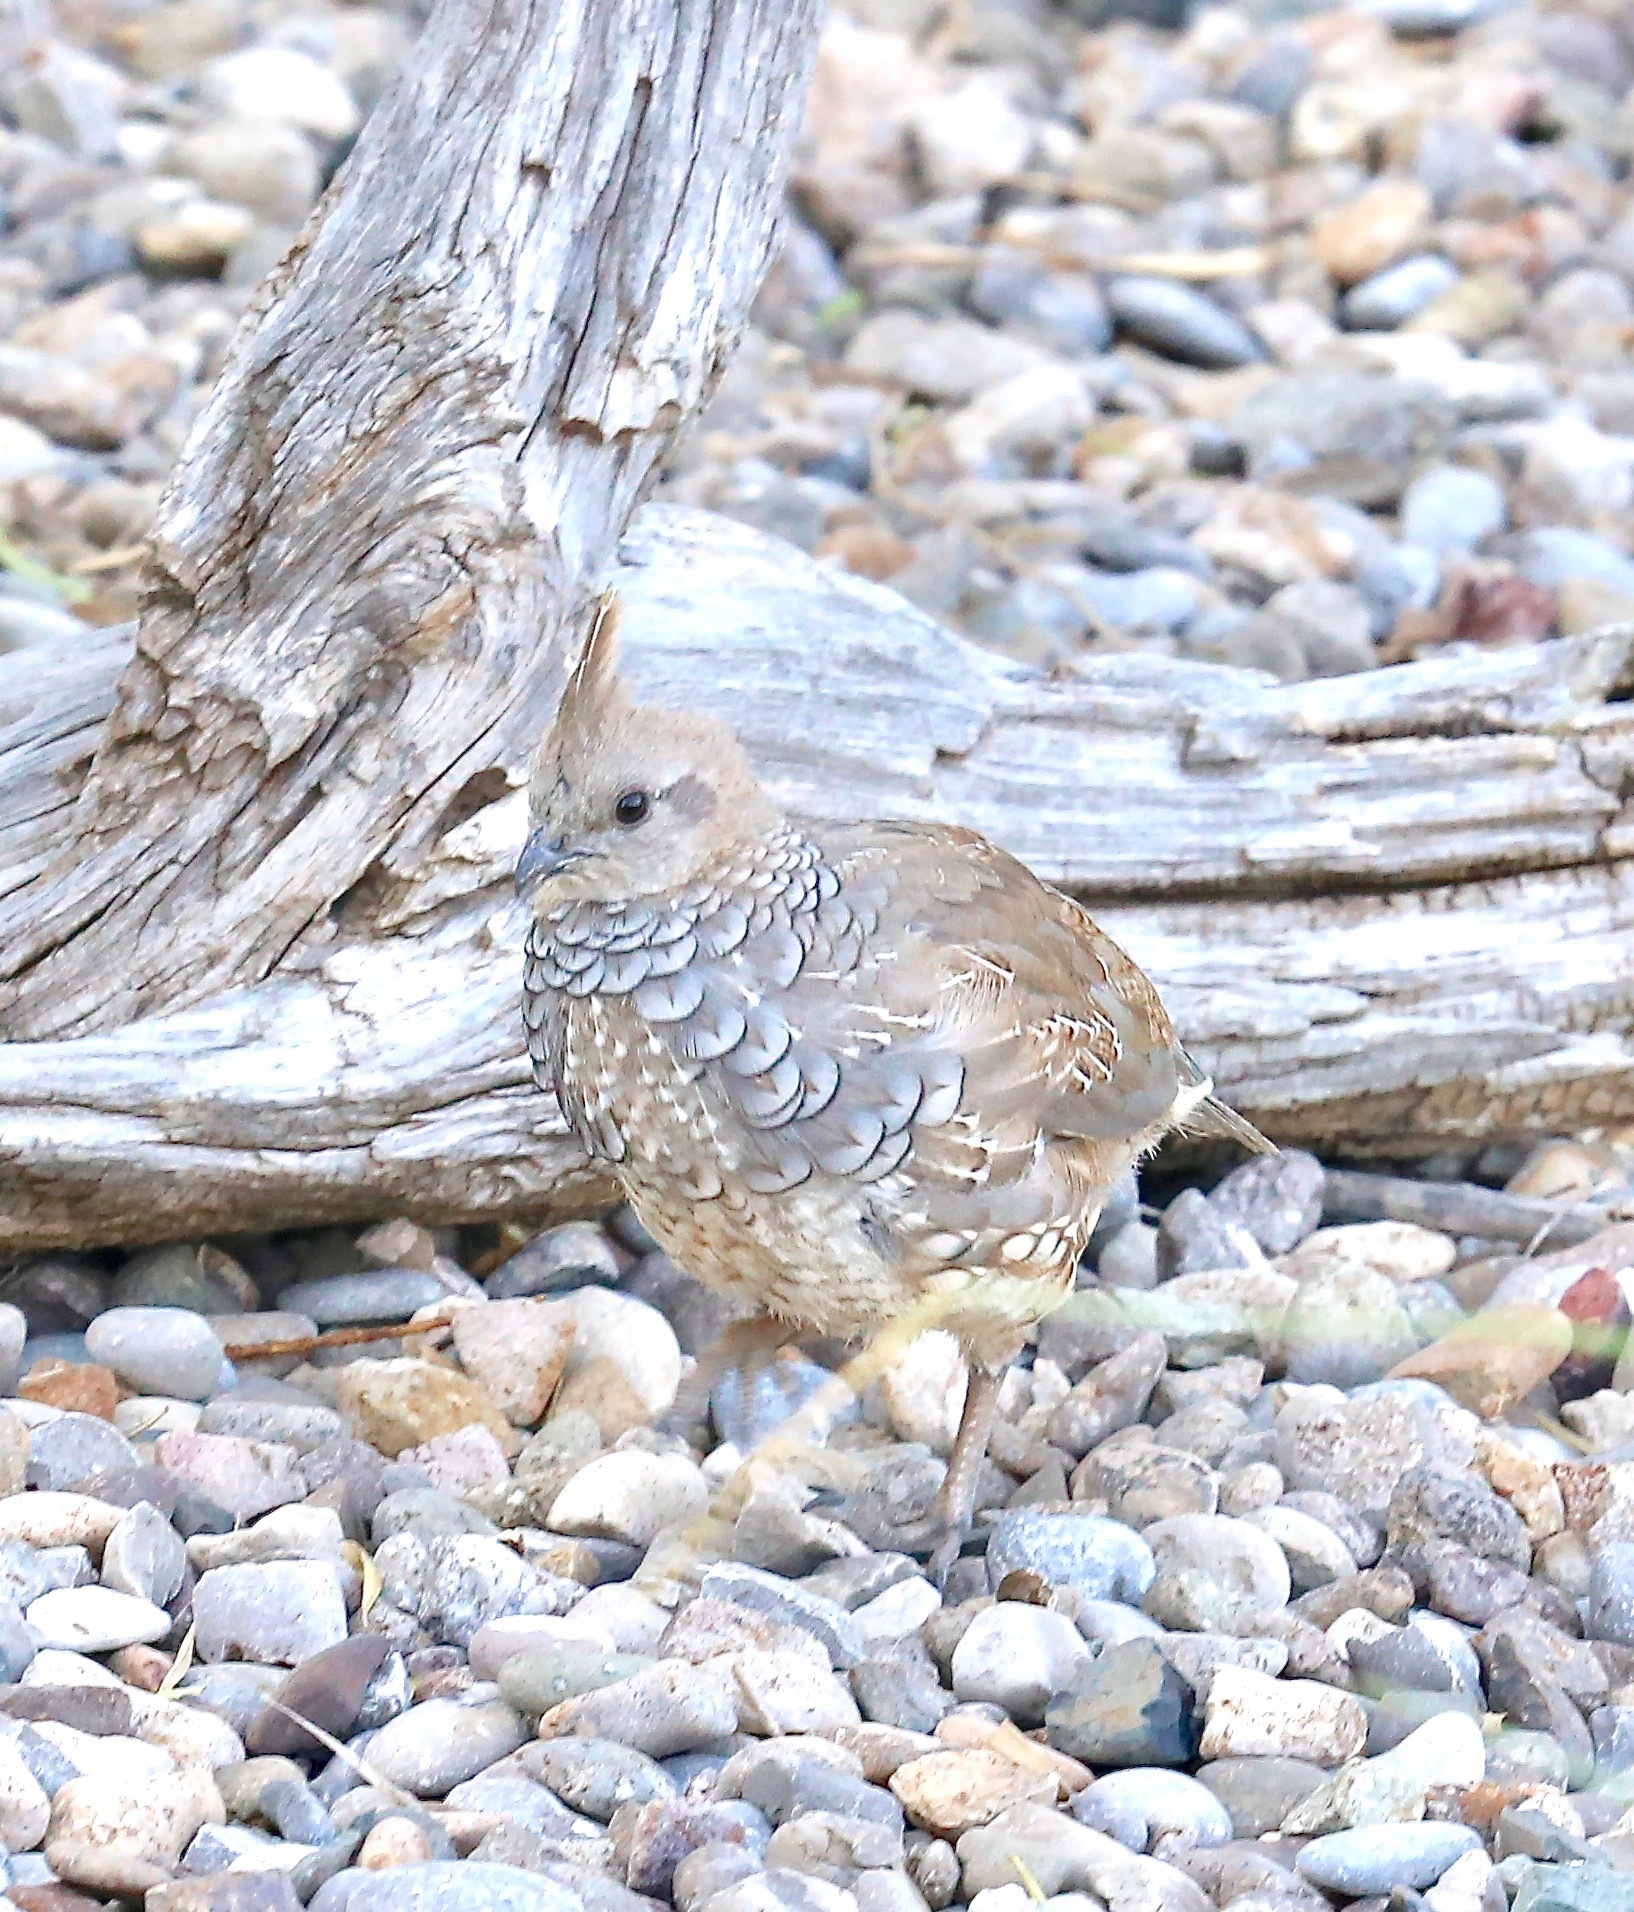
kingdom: Animalia
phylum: Chordata
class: Aves
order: Galliformes
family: Odontophoridae
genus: Callipepla
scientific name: Callipepla squamata
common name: Scaled quail
